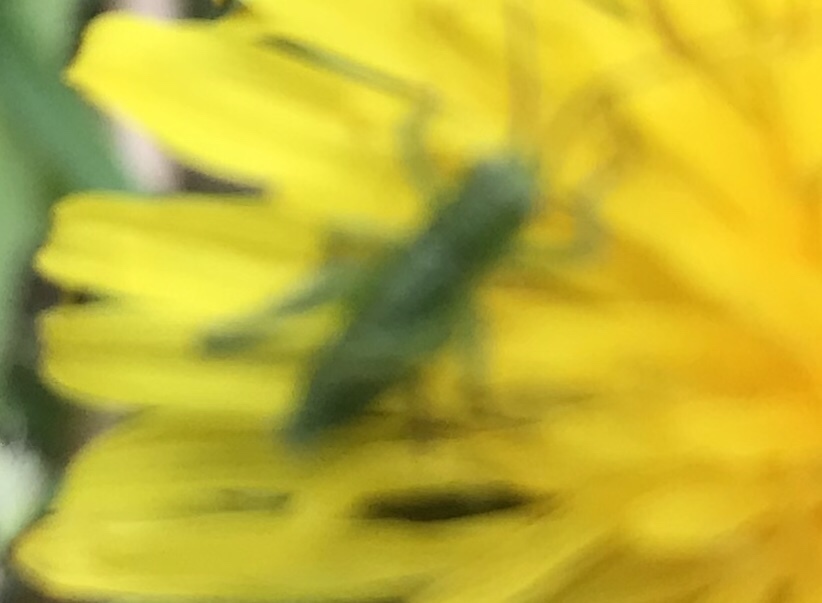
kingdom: Animalia
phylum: Arthropoda
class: Insecta
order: Orthoptera
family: Tettigoniidae
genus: Tettigonia
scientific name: Tettigonia viridissima
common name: Great green bush-cricket
